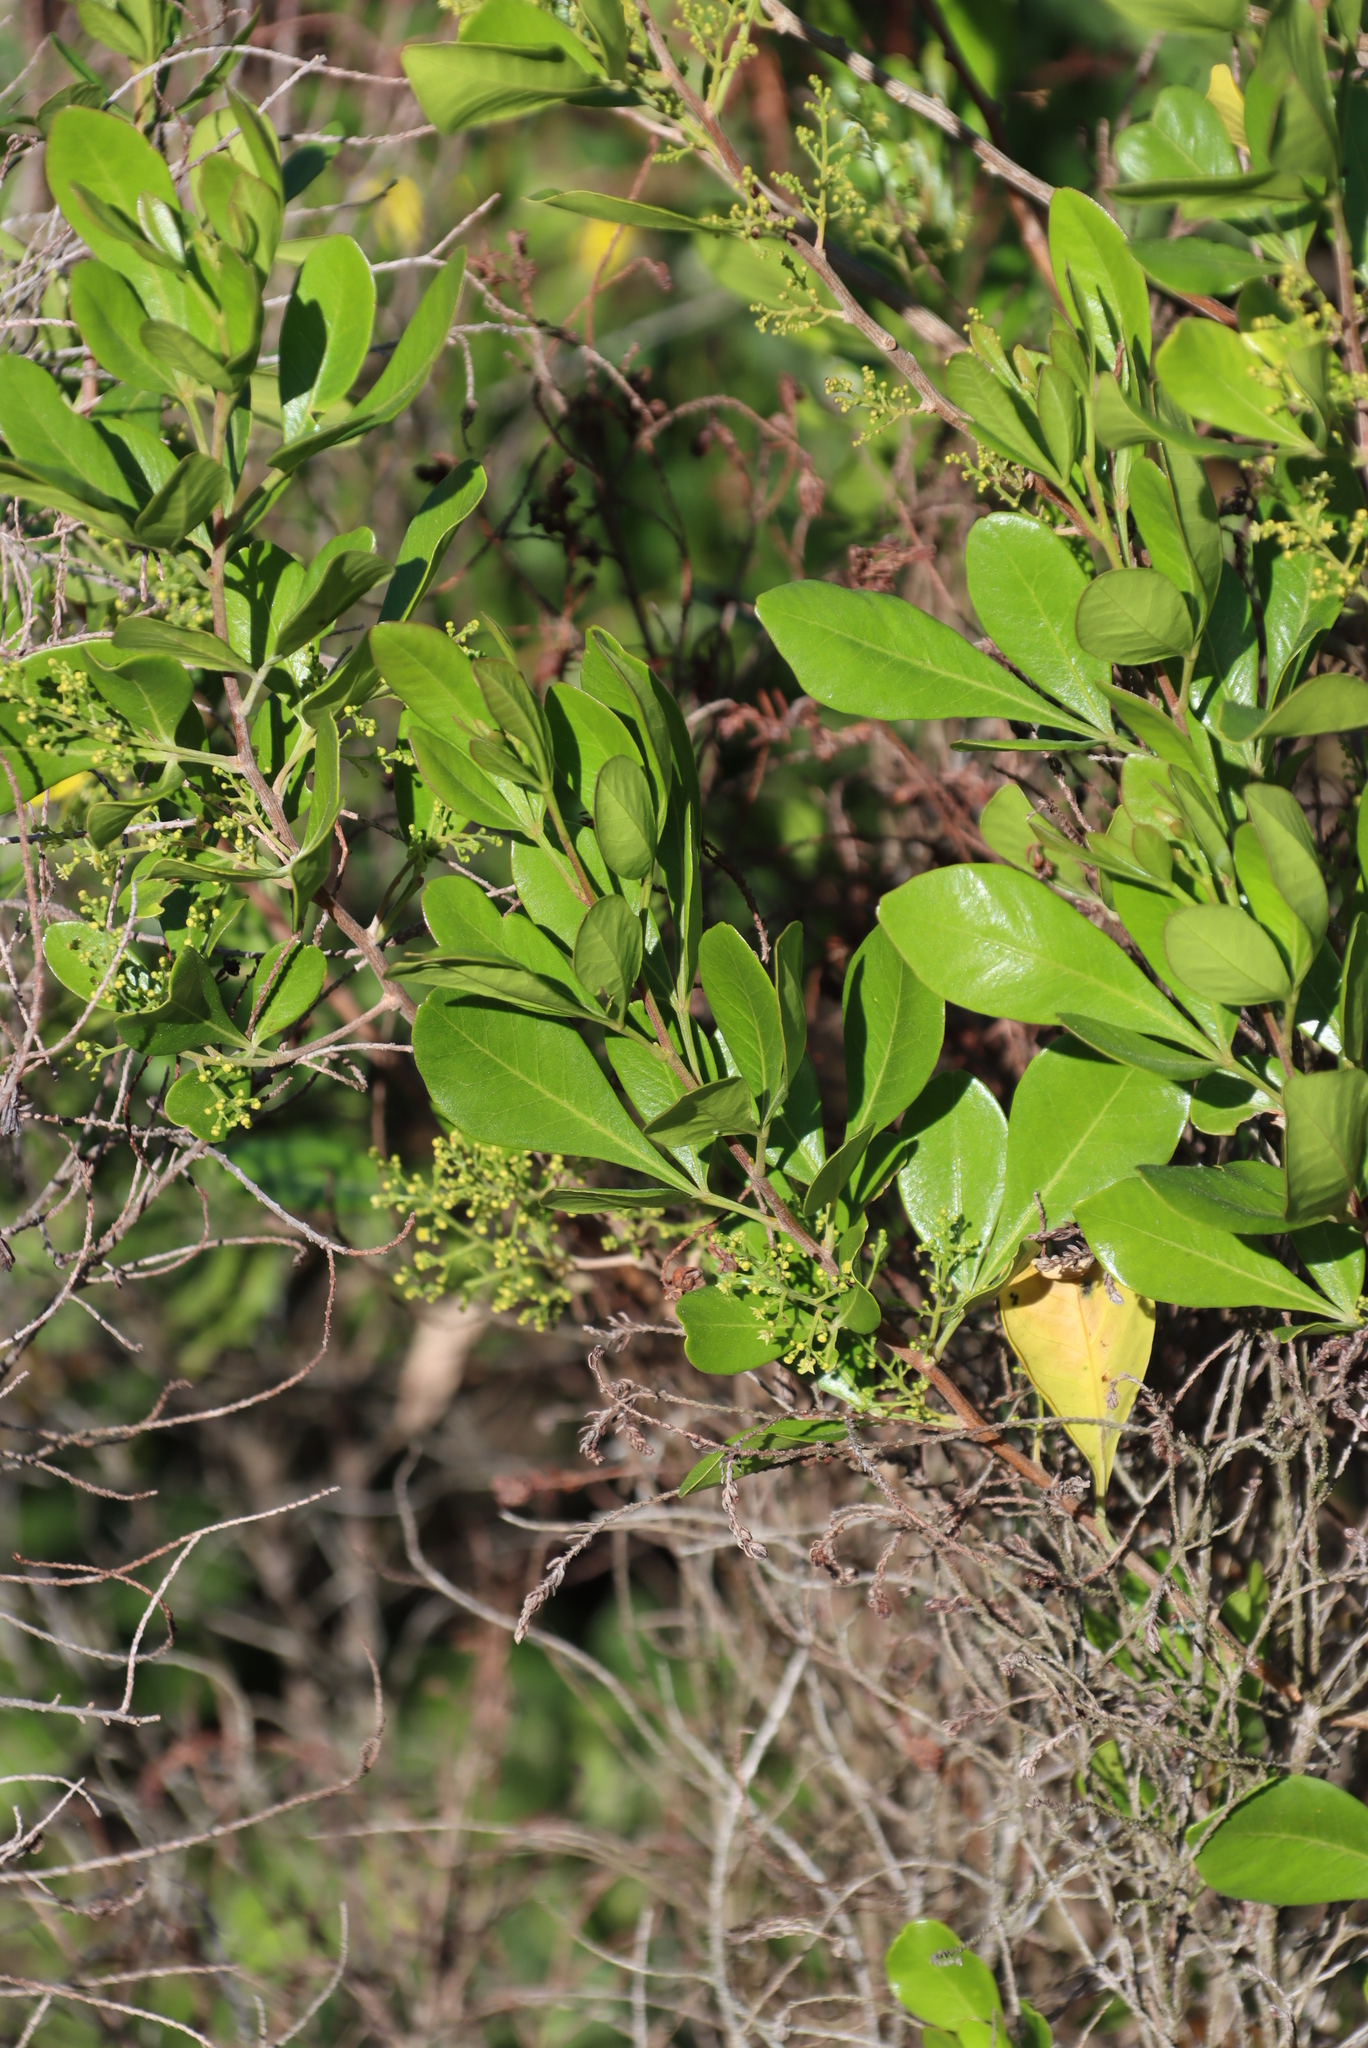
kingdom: Plantae
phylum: Tracheophyta
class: Magnoliopsida
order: Sapindales
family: Anacardiaceae
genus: Searsia
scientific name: Searsia lucida
